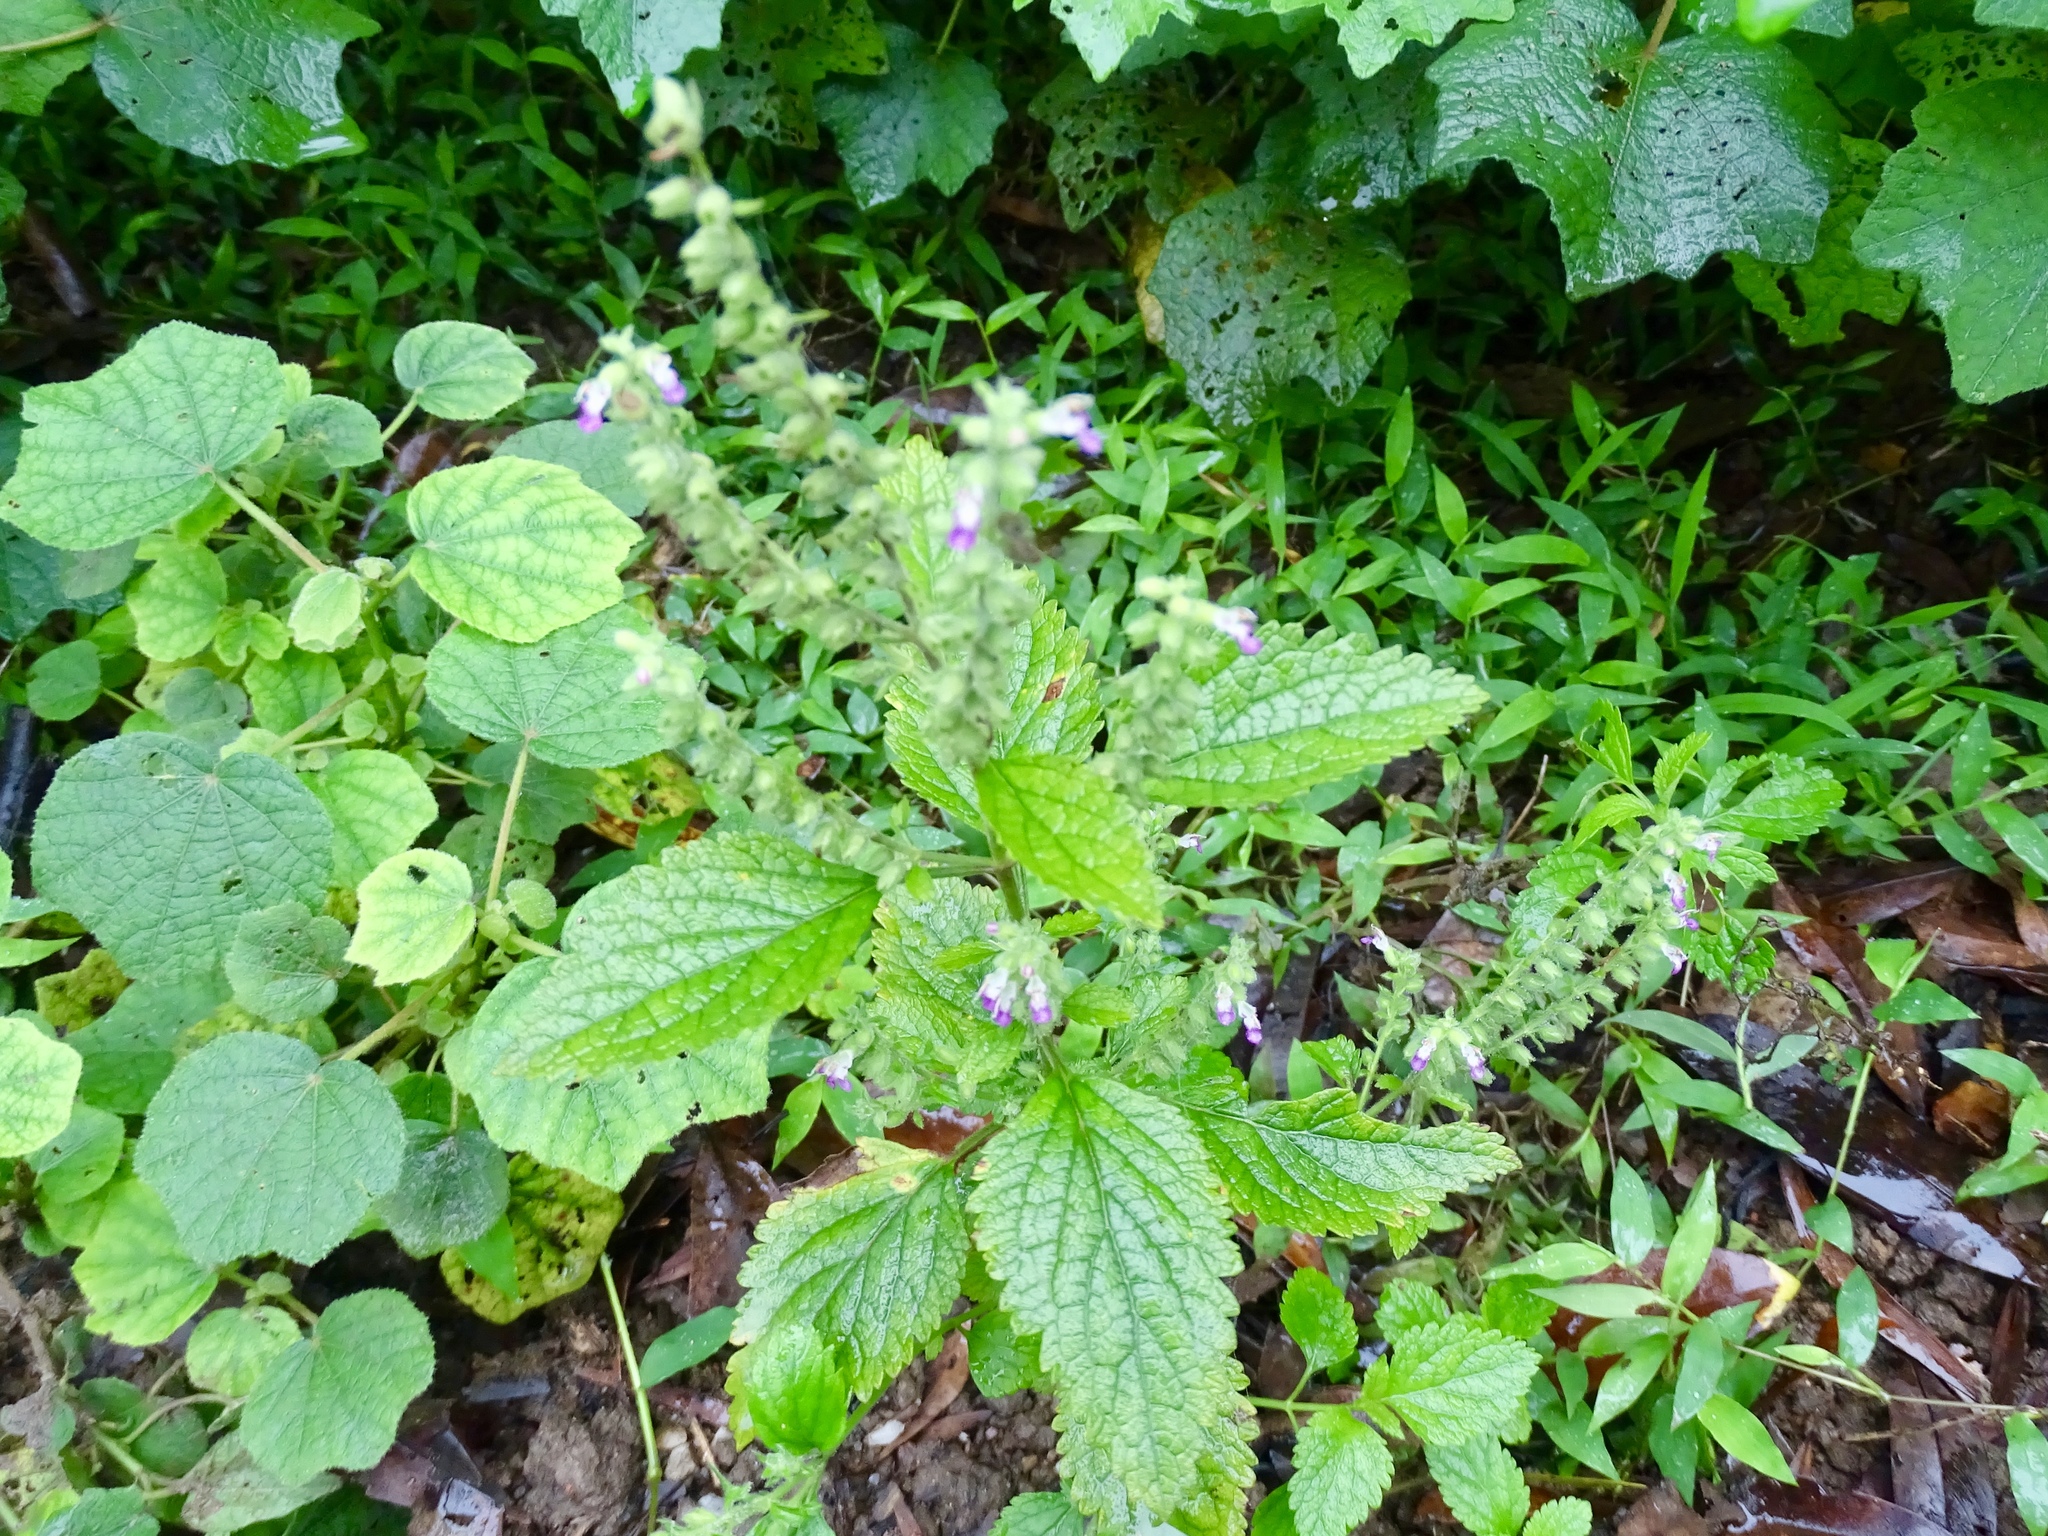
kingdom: Plantae
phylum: Tracheophyta
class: Magnoliopsida
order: Lamiales
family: Lamiaceae
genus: Teucrium
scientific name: Teucrium viscidum
